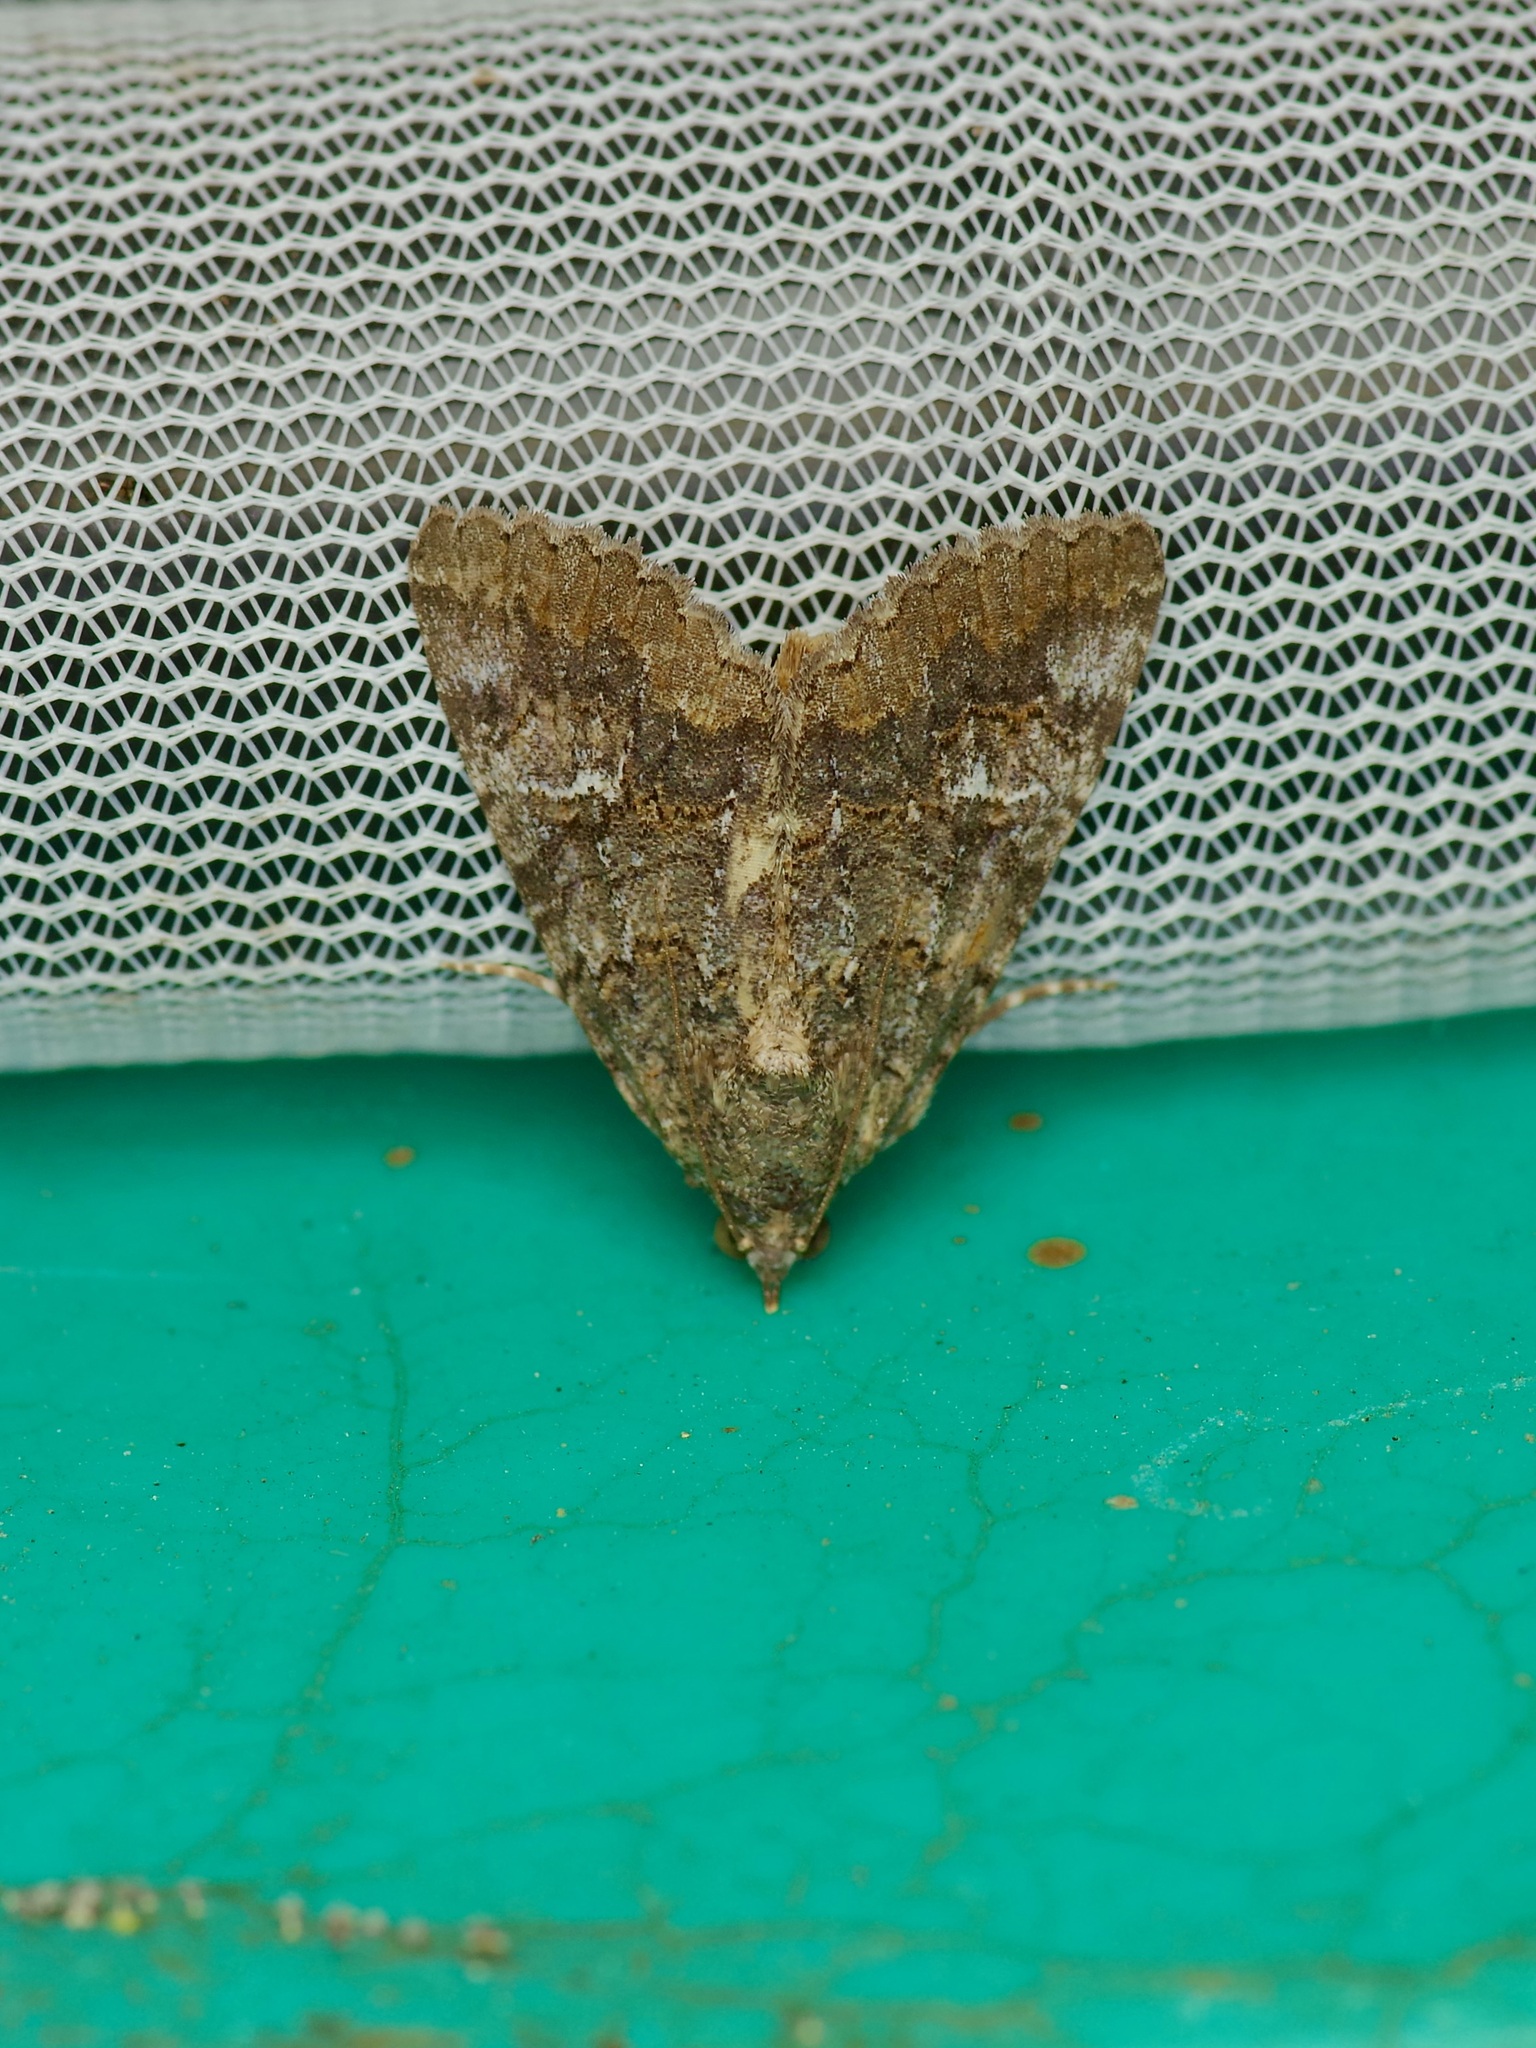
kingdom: Animalia
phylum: Arthropoda
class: Insecta
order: Lepidoptera
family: Erebidae
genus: Eubolina
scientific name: Eubolina impartialis
